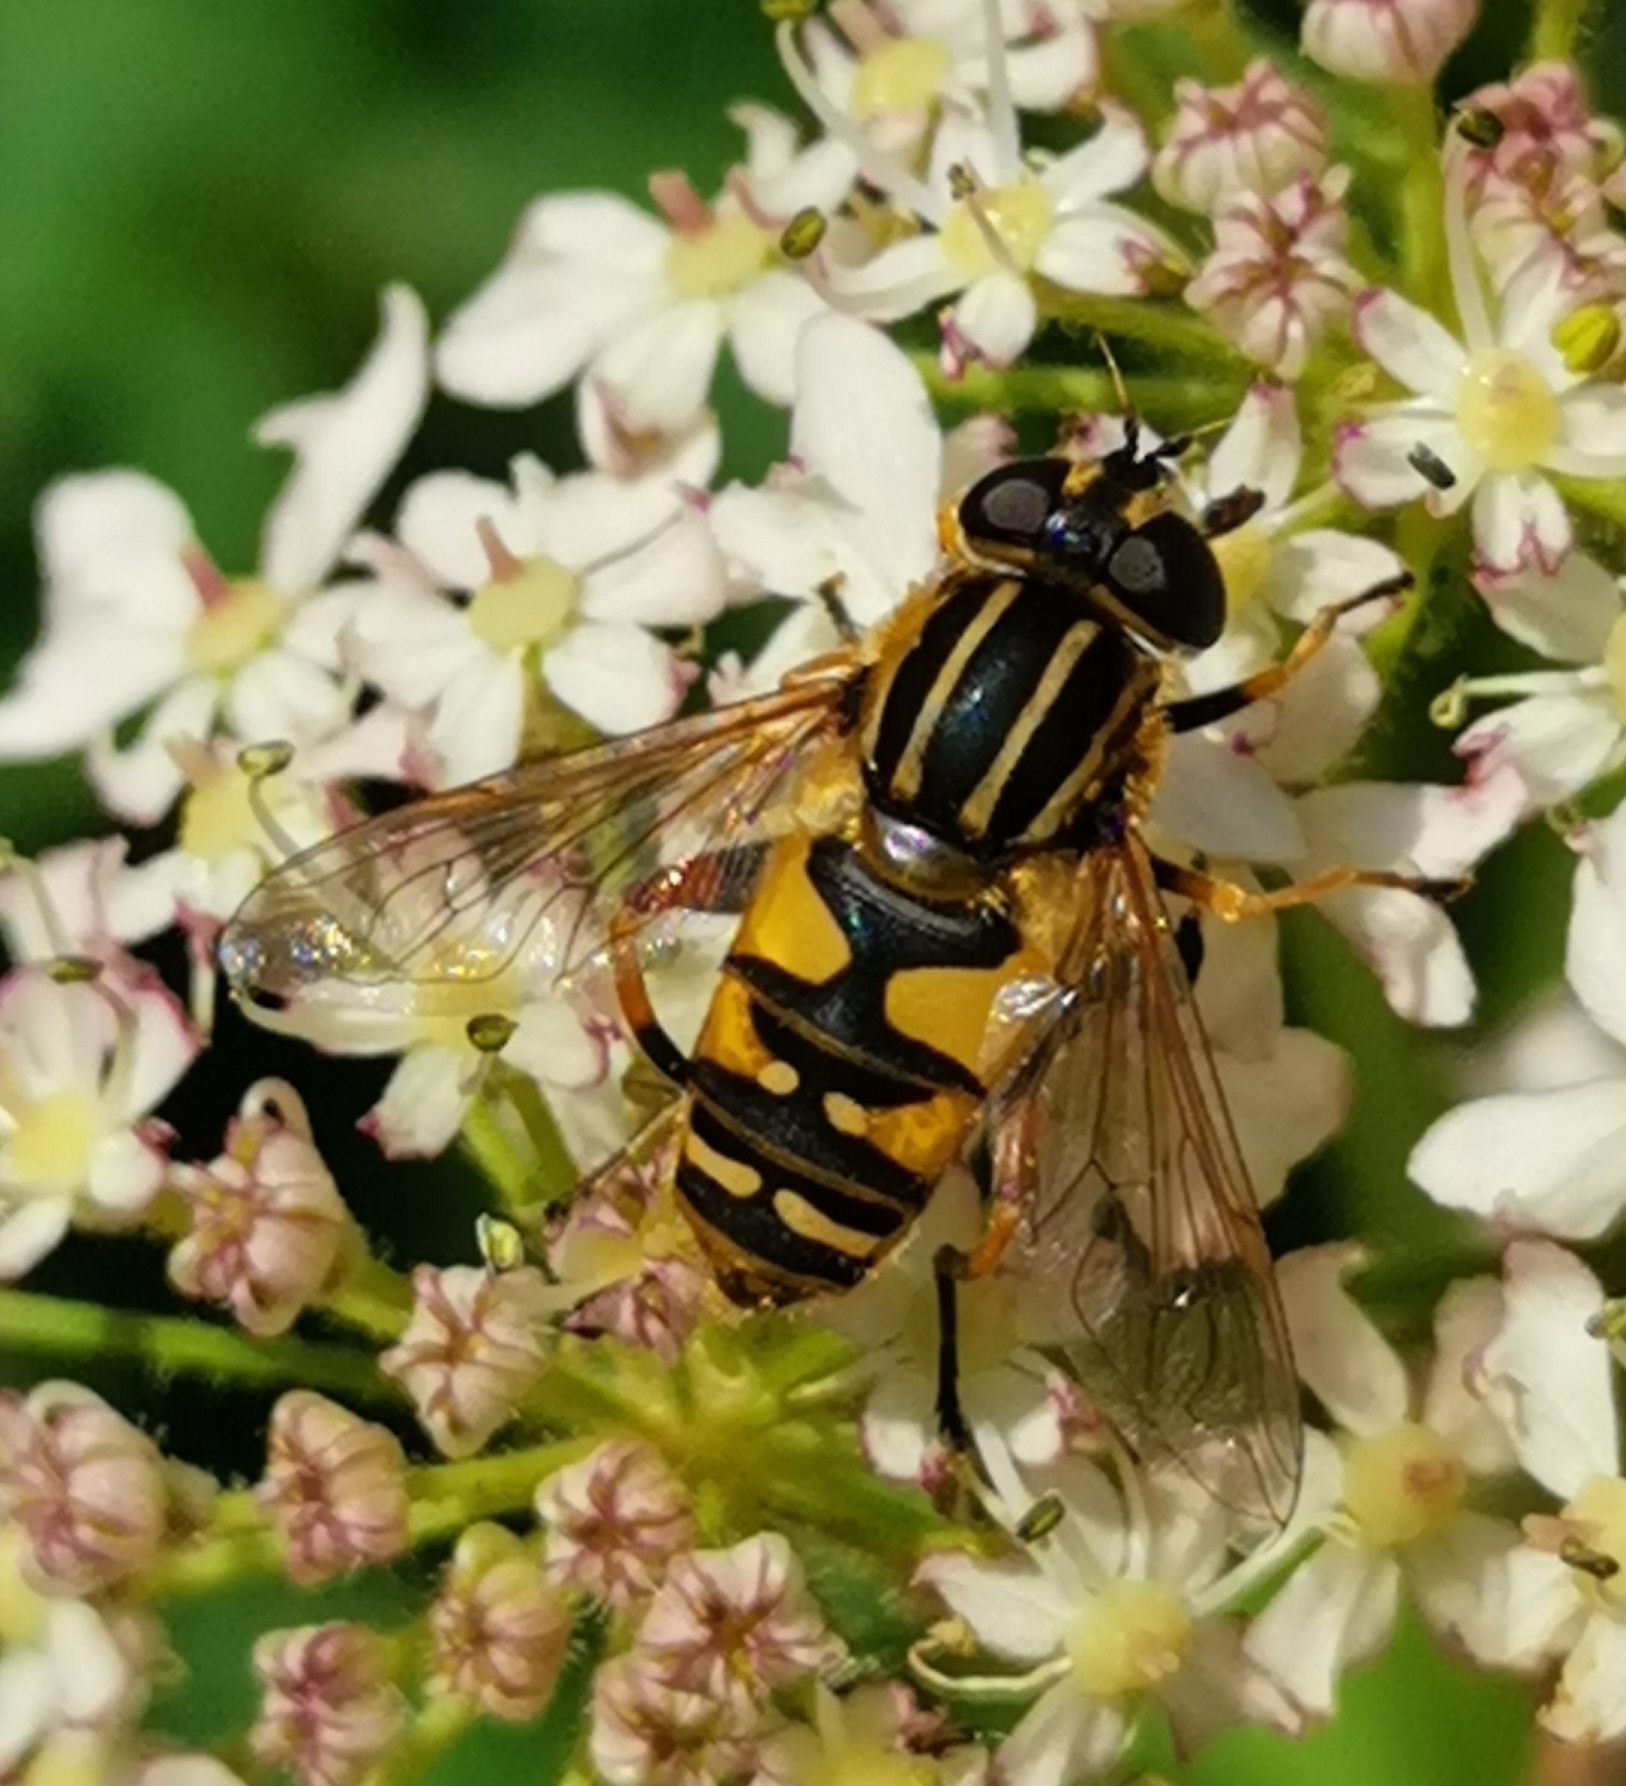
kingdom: Animalia
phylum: Arthropoda
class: Insecta
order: Diptera
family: Syrphidae
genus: Helophilus
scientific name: Helophilus pendulus
